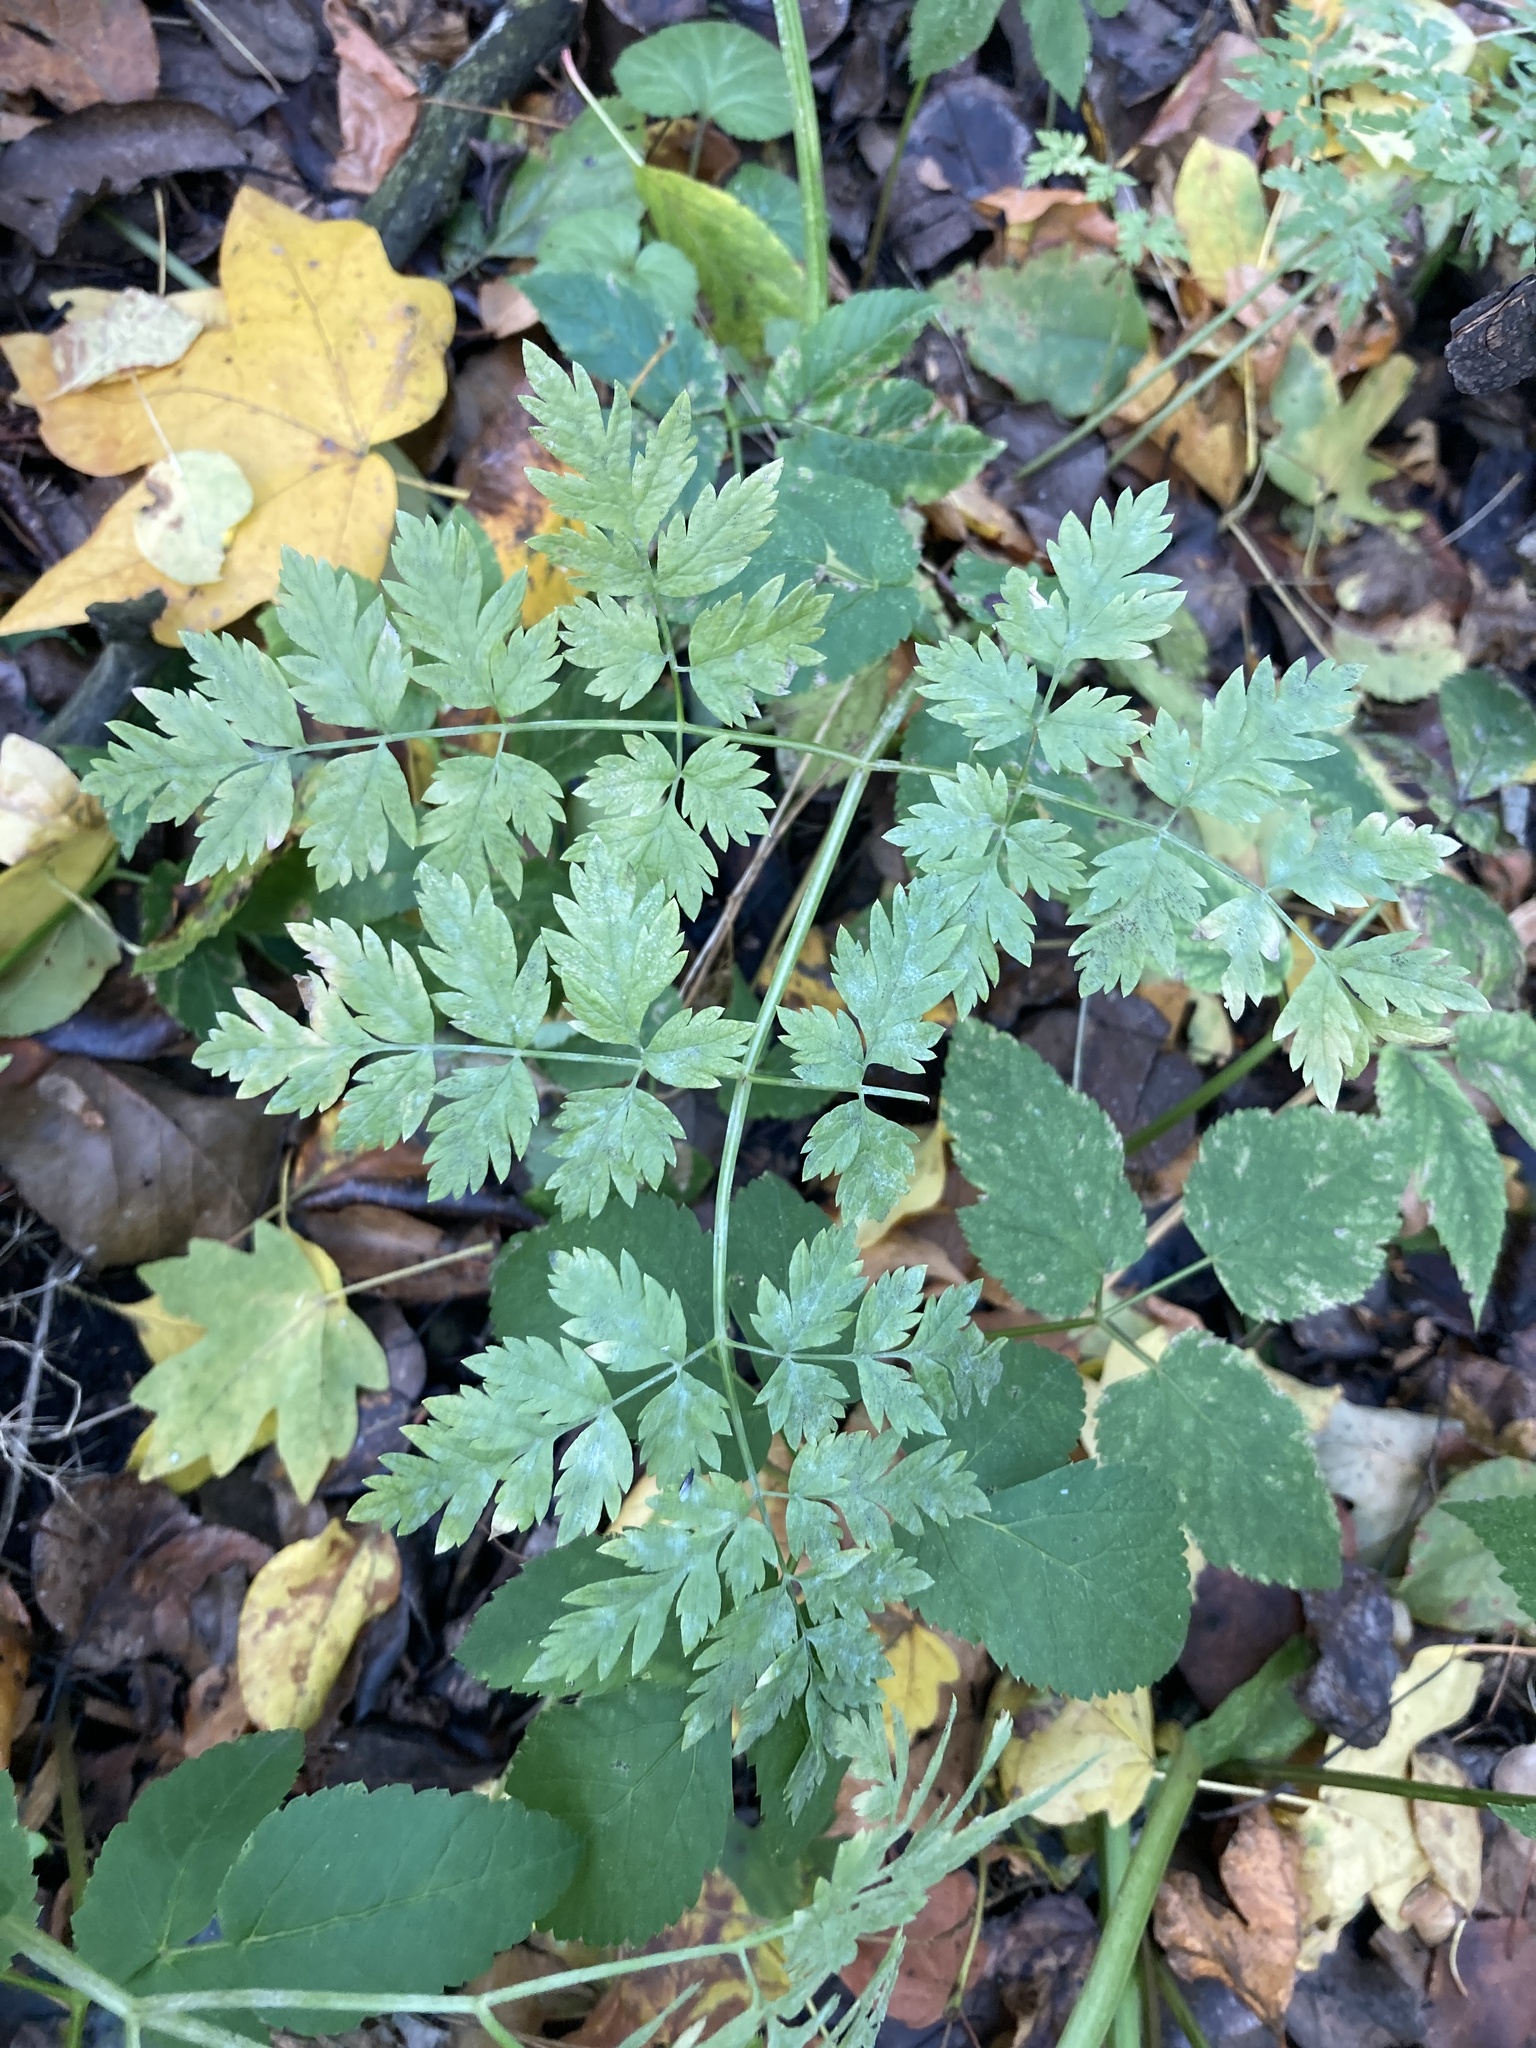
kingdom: Plantae
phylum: Tracheophyta
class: Magnoliopsida
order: Apiales
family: Apiaceae
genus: Anthriscus
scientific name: Anthriscus sylvestris
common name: Cow parsley
